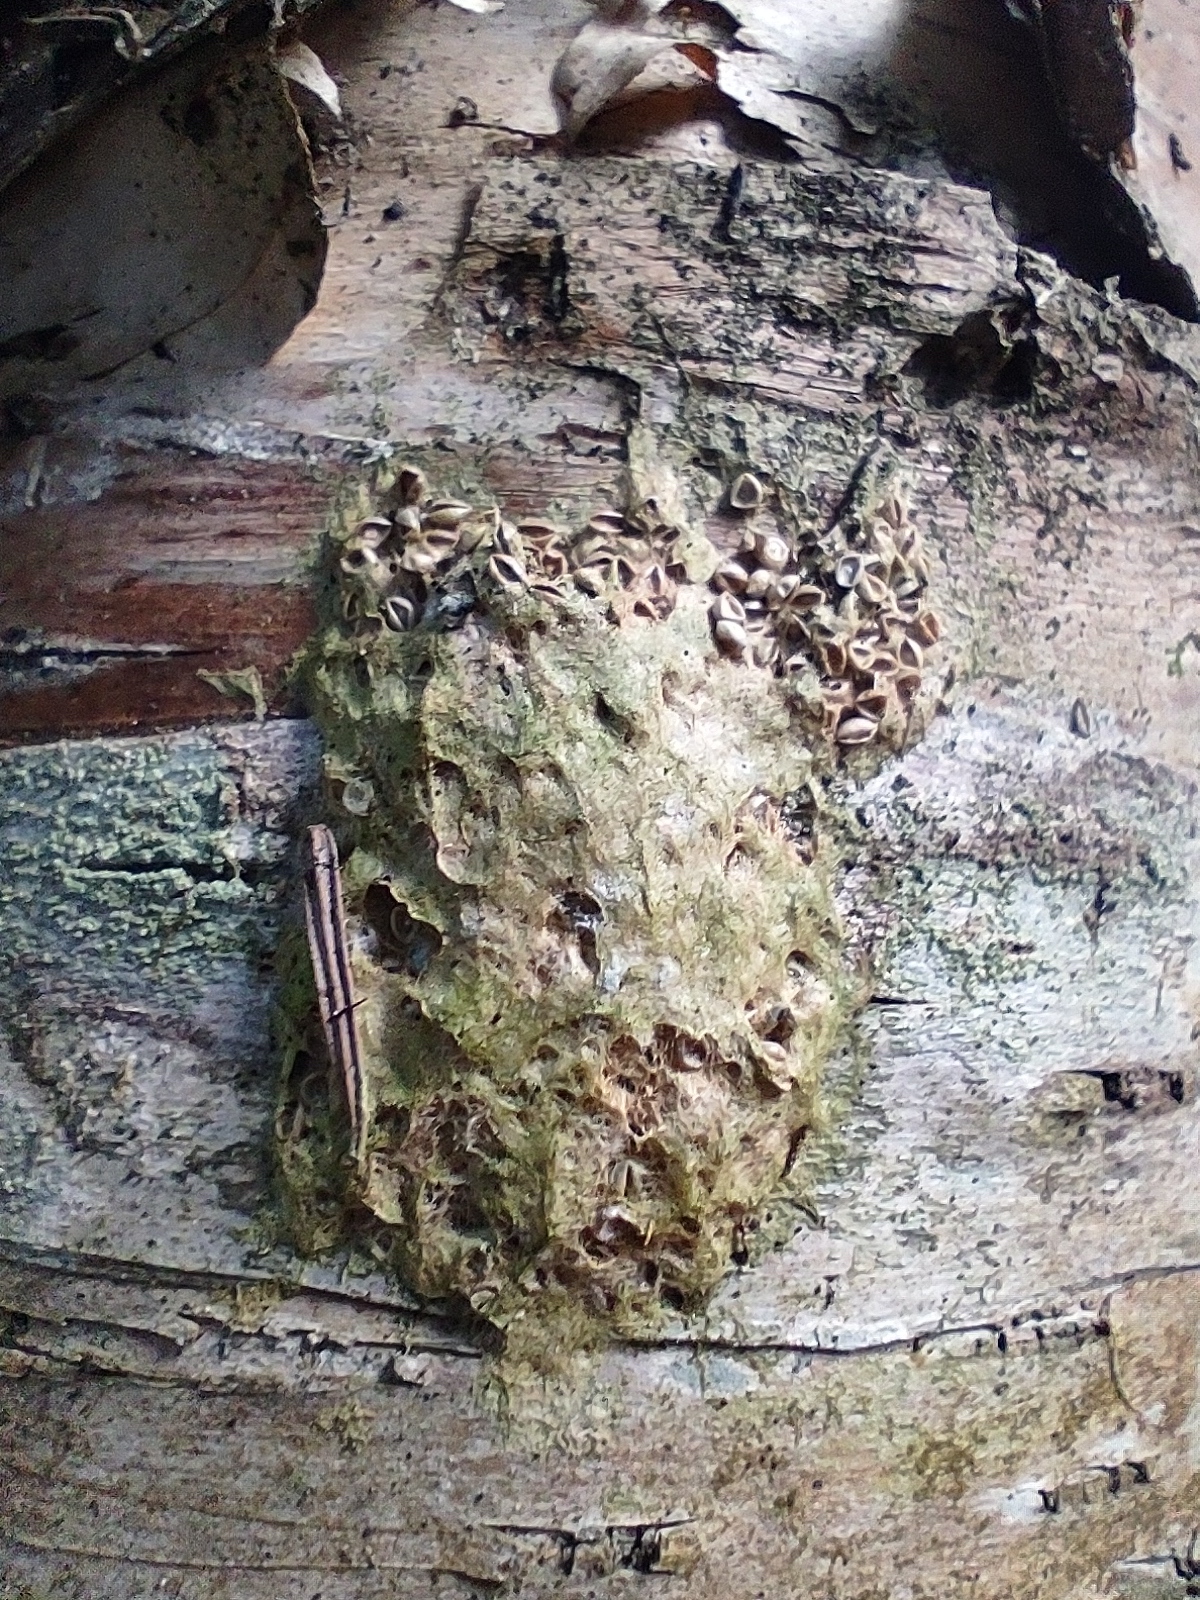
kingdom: Animalia
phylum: Arthropoda
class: Insecta
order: Lepidoptera
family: Erebidae
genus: Lymantria
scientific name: Lymantria dispar
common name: Gypsy moth
